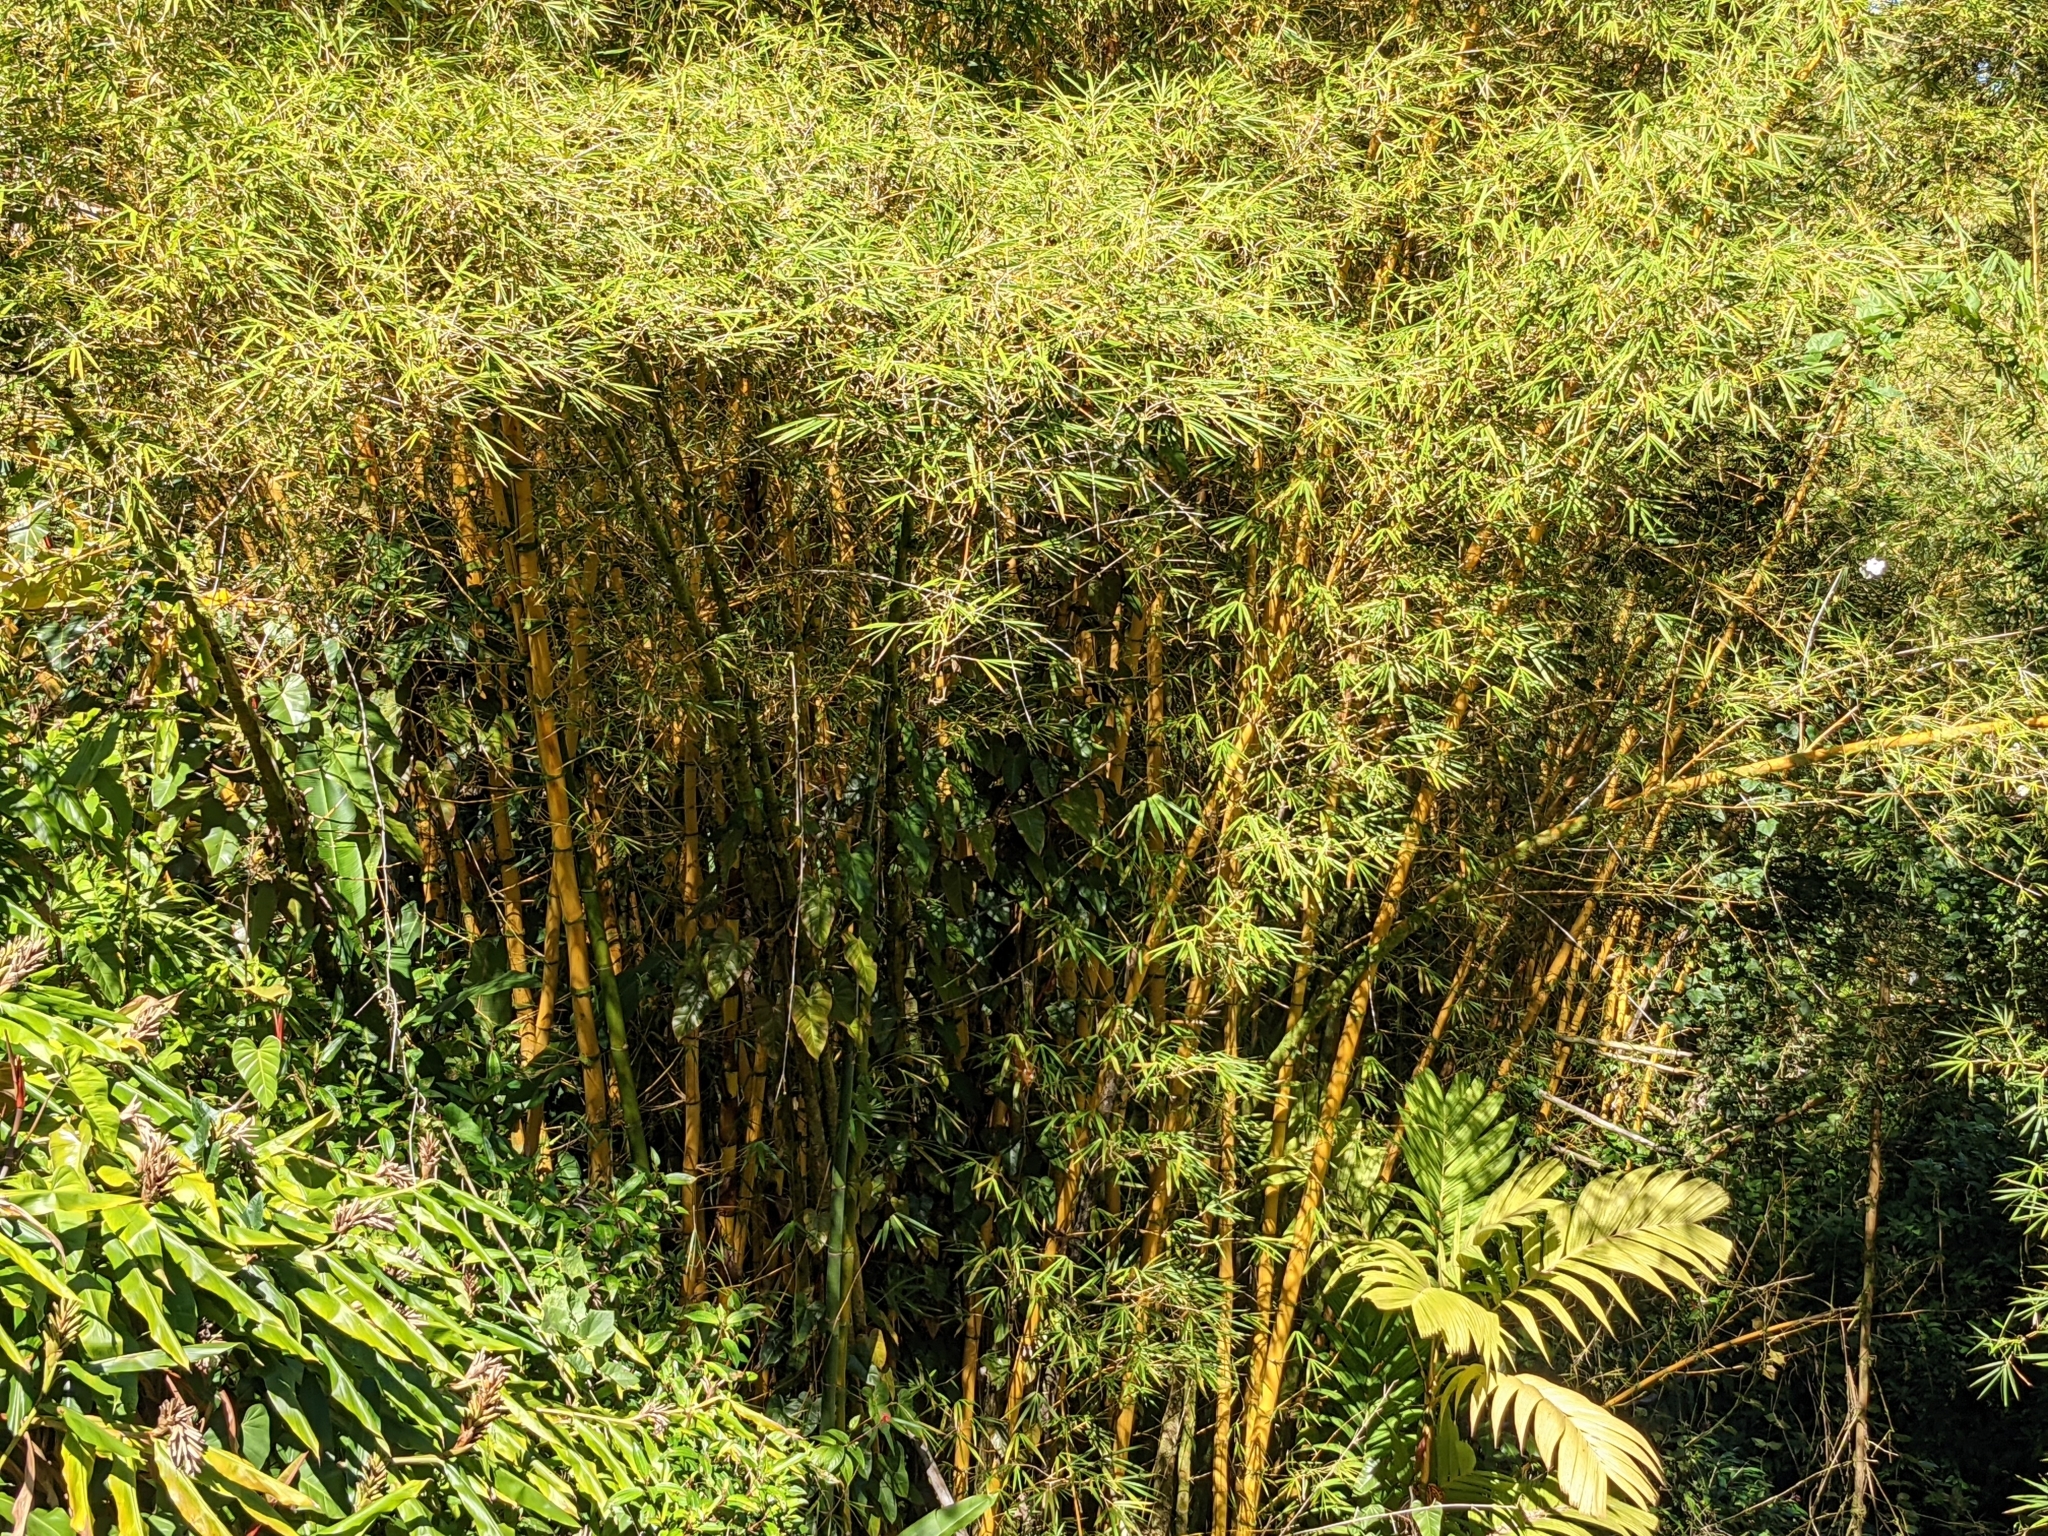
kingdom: Plantae
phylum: Tracheophyta
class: Liliopsida
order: Poales
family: Poaceae
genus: Bambusa
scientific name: Bambusa vulgaris
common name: Common bamboo
